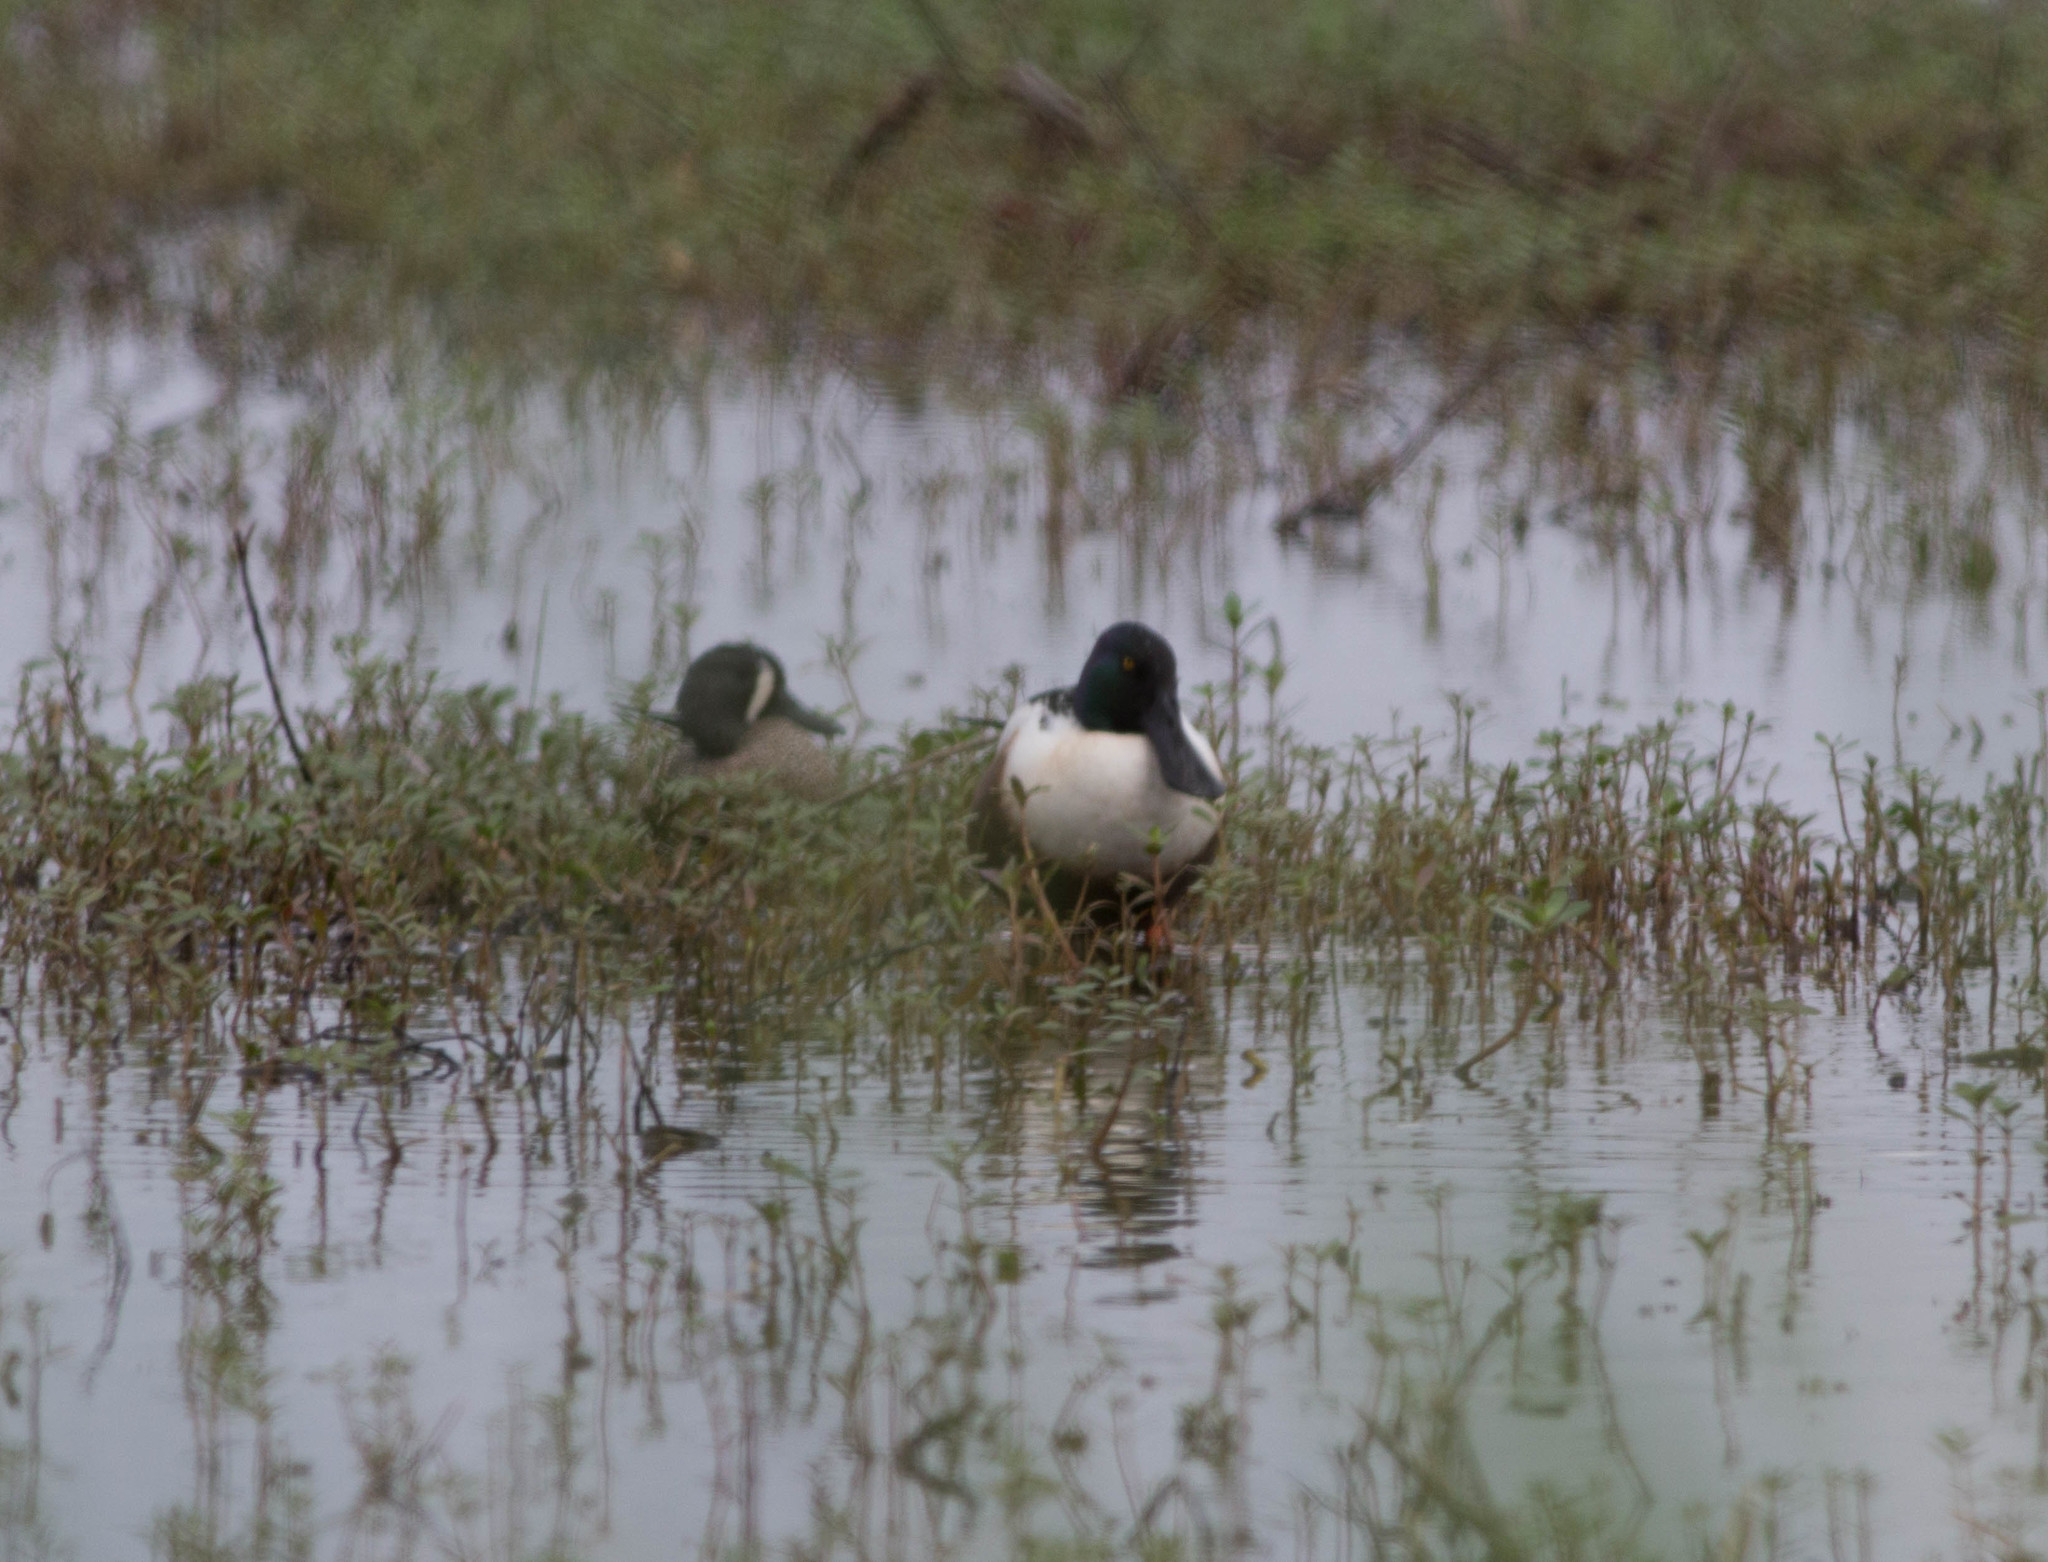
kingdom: Animalia
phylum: Chordata
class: Aves
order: Anseriformes
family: Anatidae
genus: Spatula
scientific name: Spatula clypeata
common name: Northern shoveler
